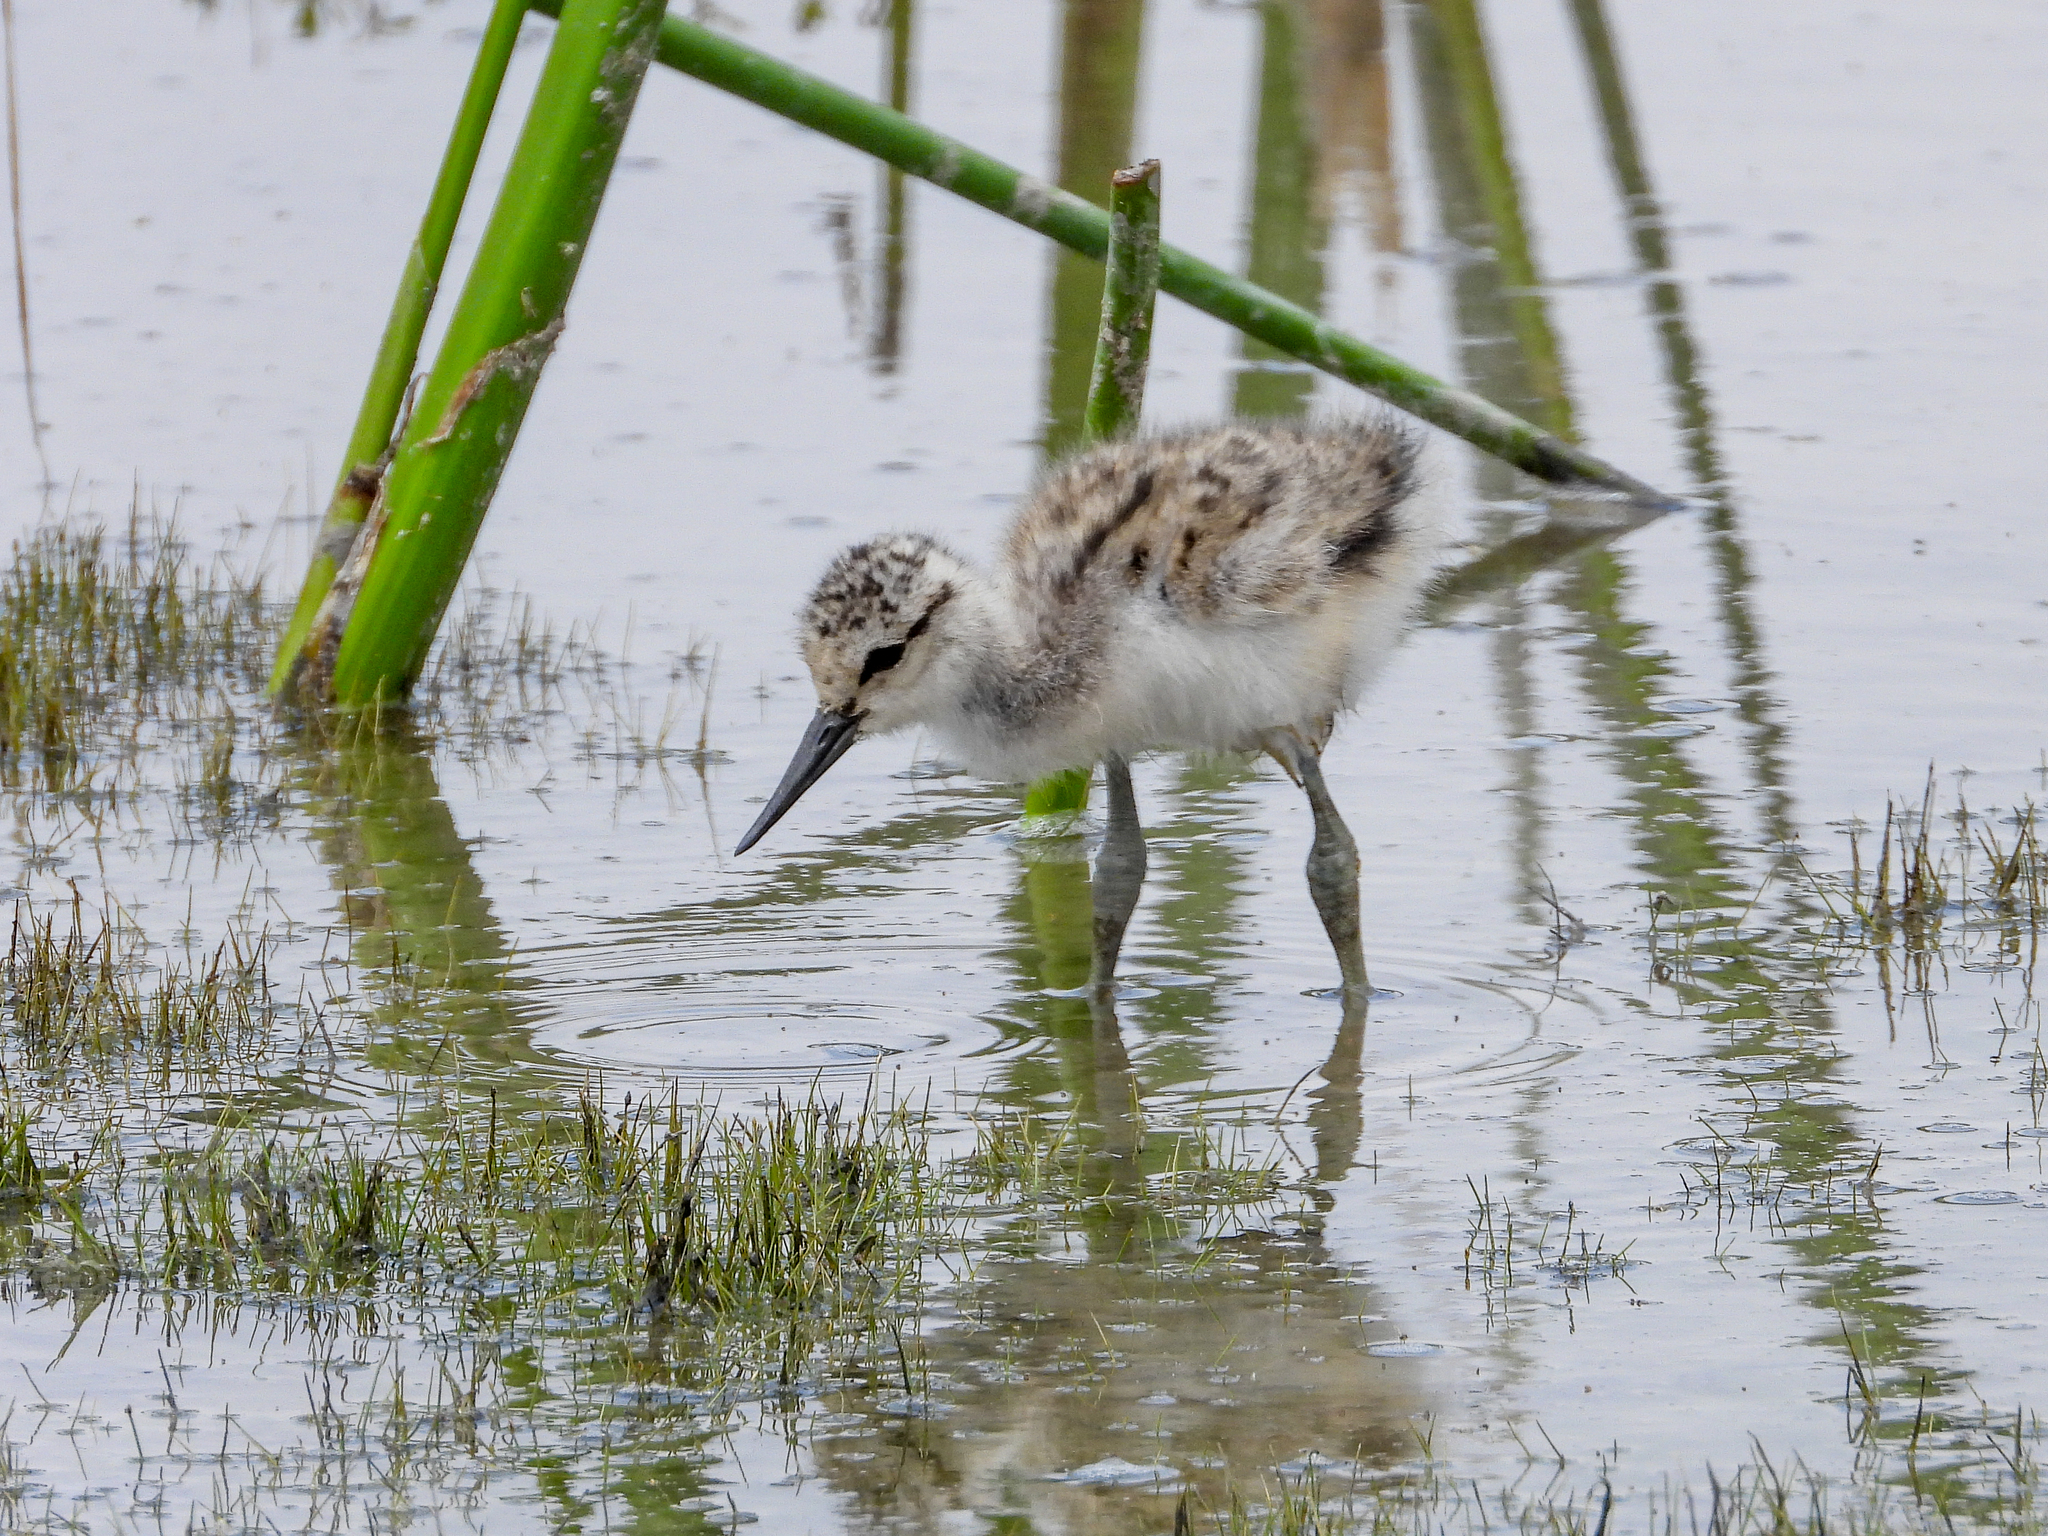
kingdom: Animalia
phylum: Chordata
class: Aves
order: Charadriiformes
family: Recurvirostridae
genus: Recurvirostra
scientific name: Recurvirostra americana
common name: American avocet
